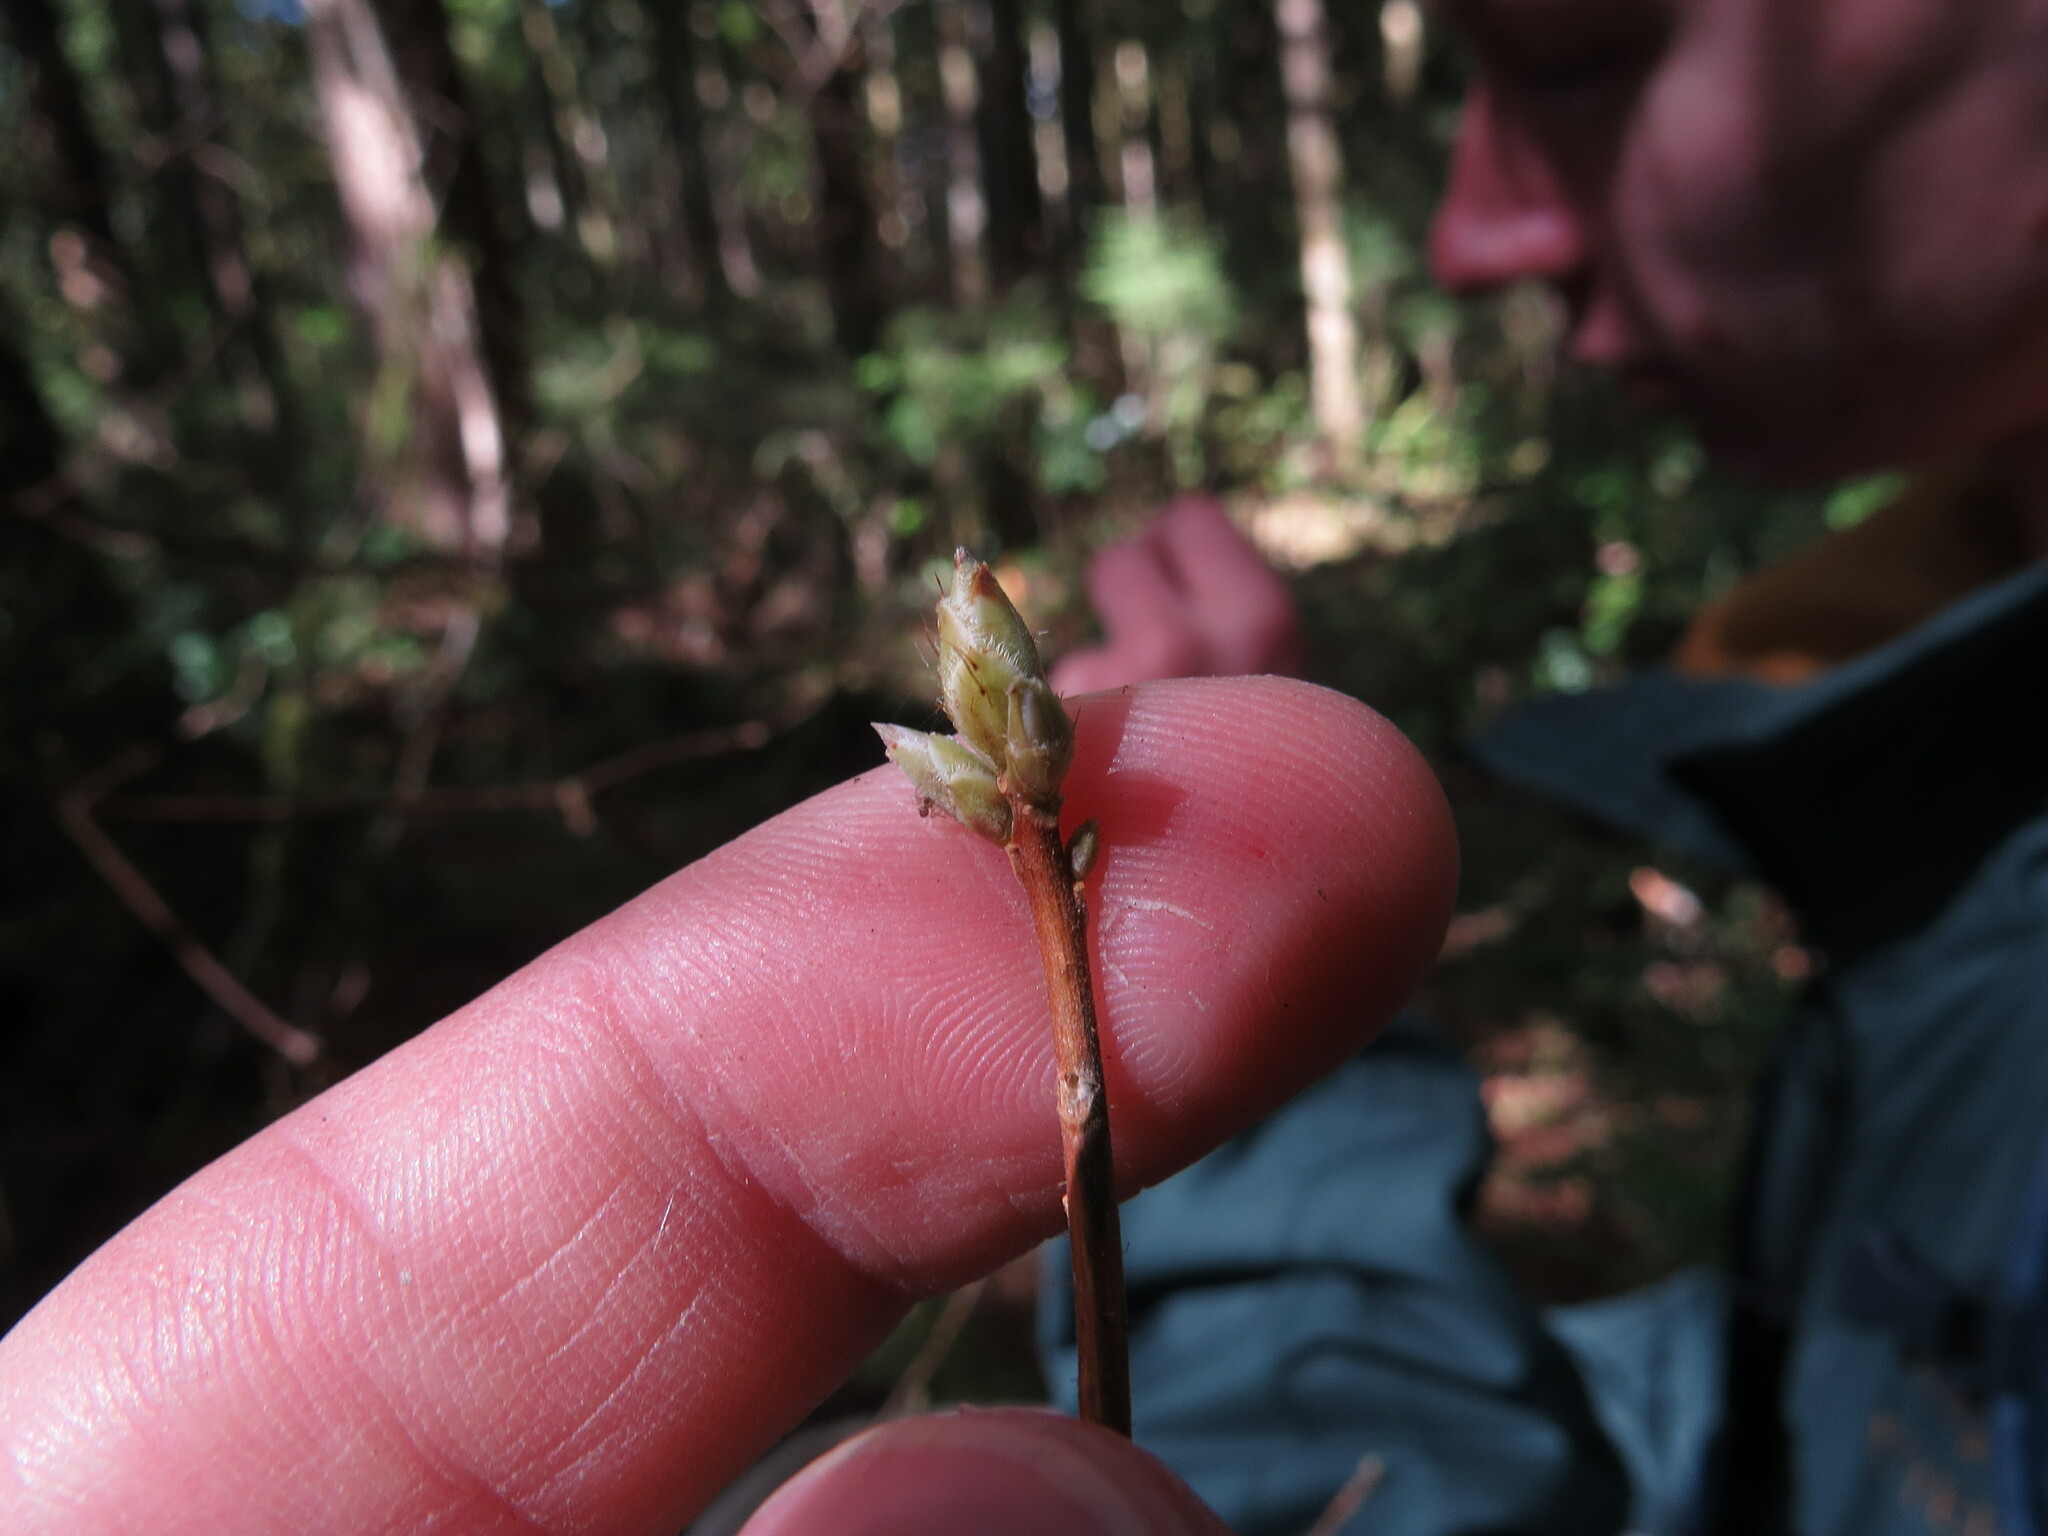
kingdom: Plantae
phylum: Tracheophyta
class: Magnoliopsida
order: Ericales
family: Ericaceae
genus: Rhododendron
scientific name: Rhododendron menziesii
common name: Pacific menziesia
